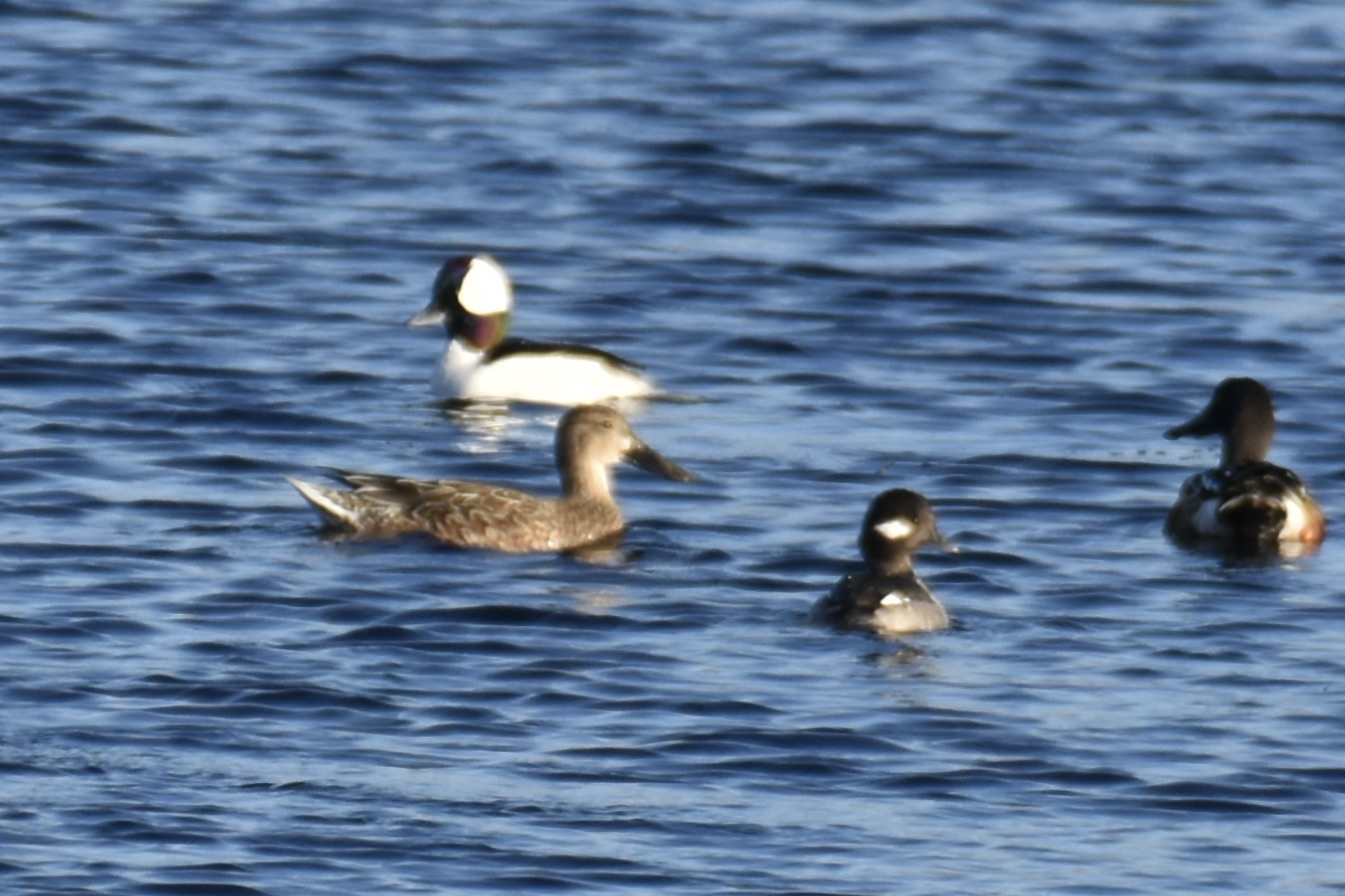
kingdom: Animalia
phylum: Chordata
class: Aves
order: Anseriformes
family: Anatidae
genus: Bucephala
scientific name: Bucephala albeola
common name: Bufflehead
